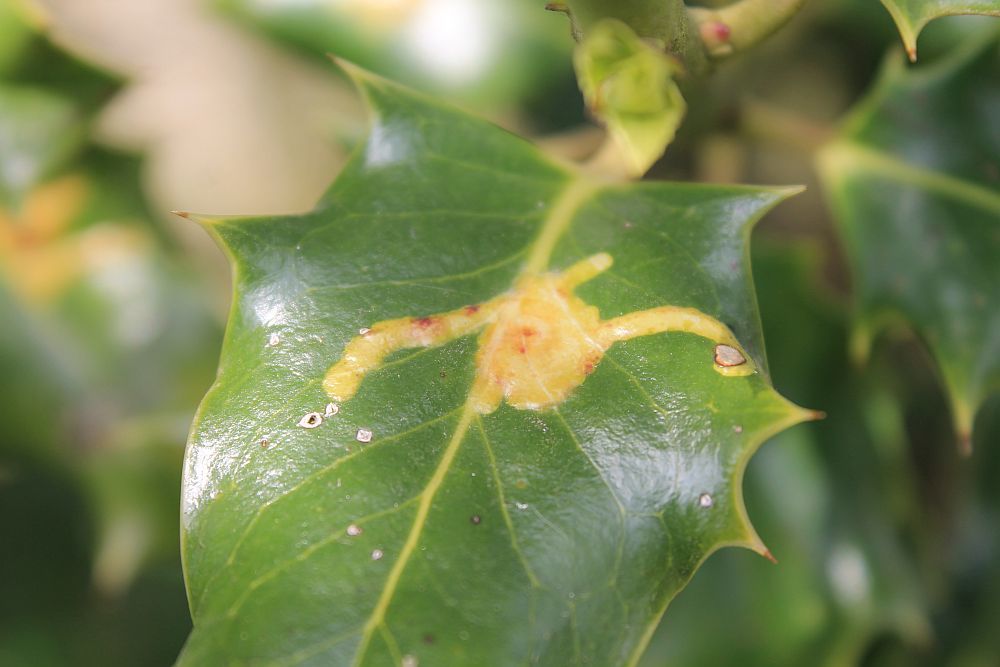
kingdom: Animalia
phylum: Arthropoda
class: Insecta
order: Diptera
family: Agromyzidae
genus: Phytomyza
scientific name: Phytomyza ilicis
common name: Holly leafminer
